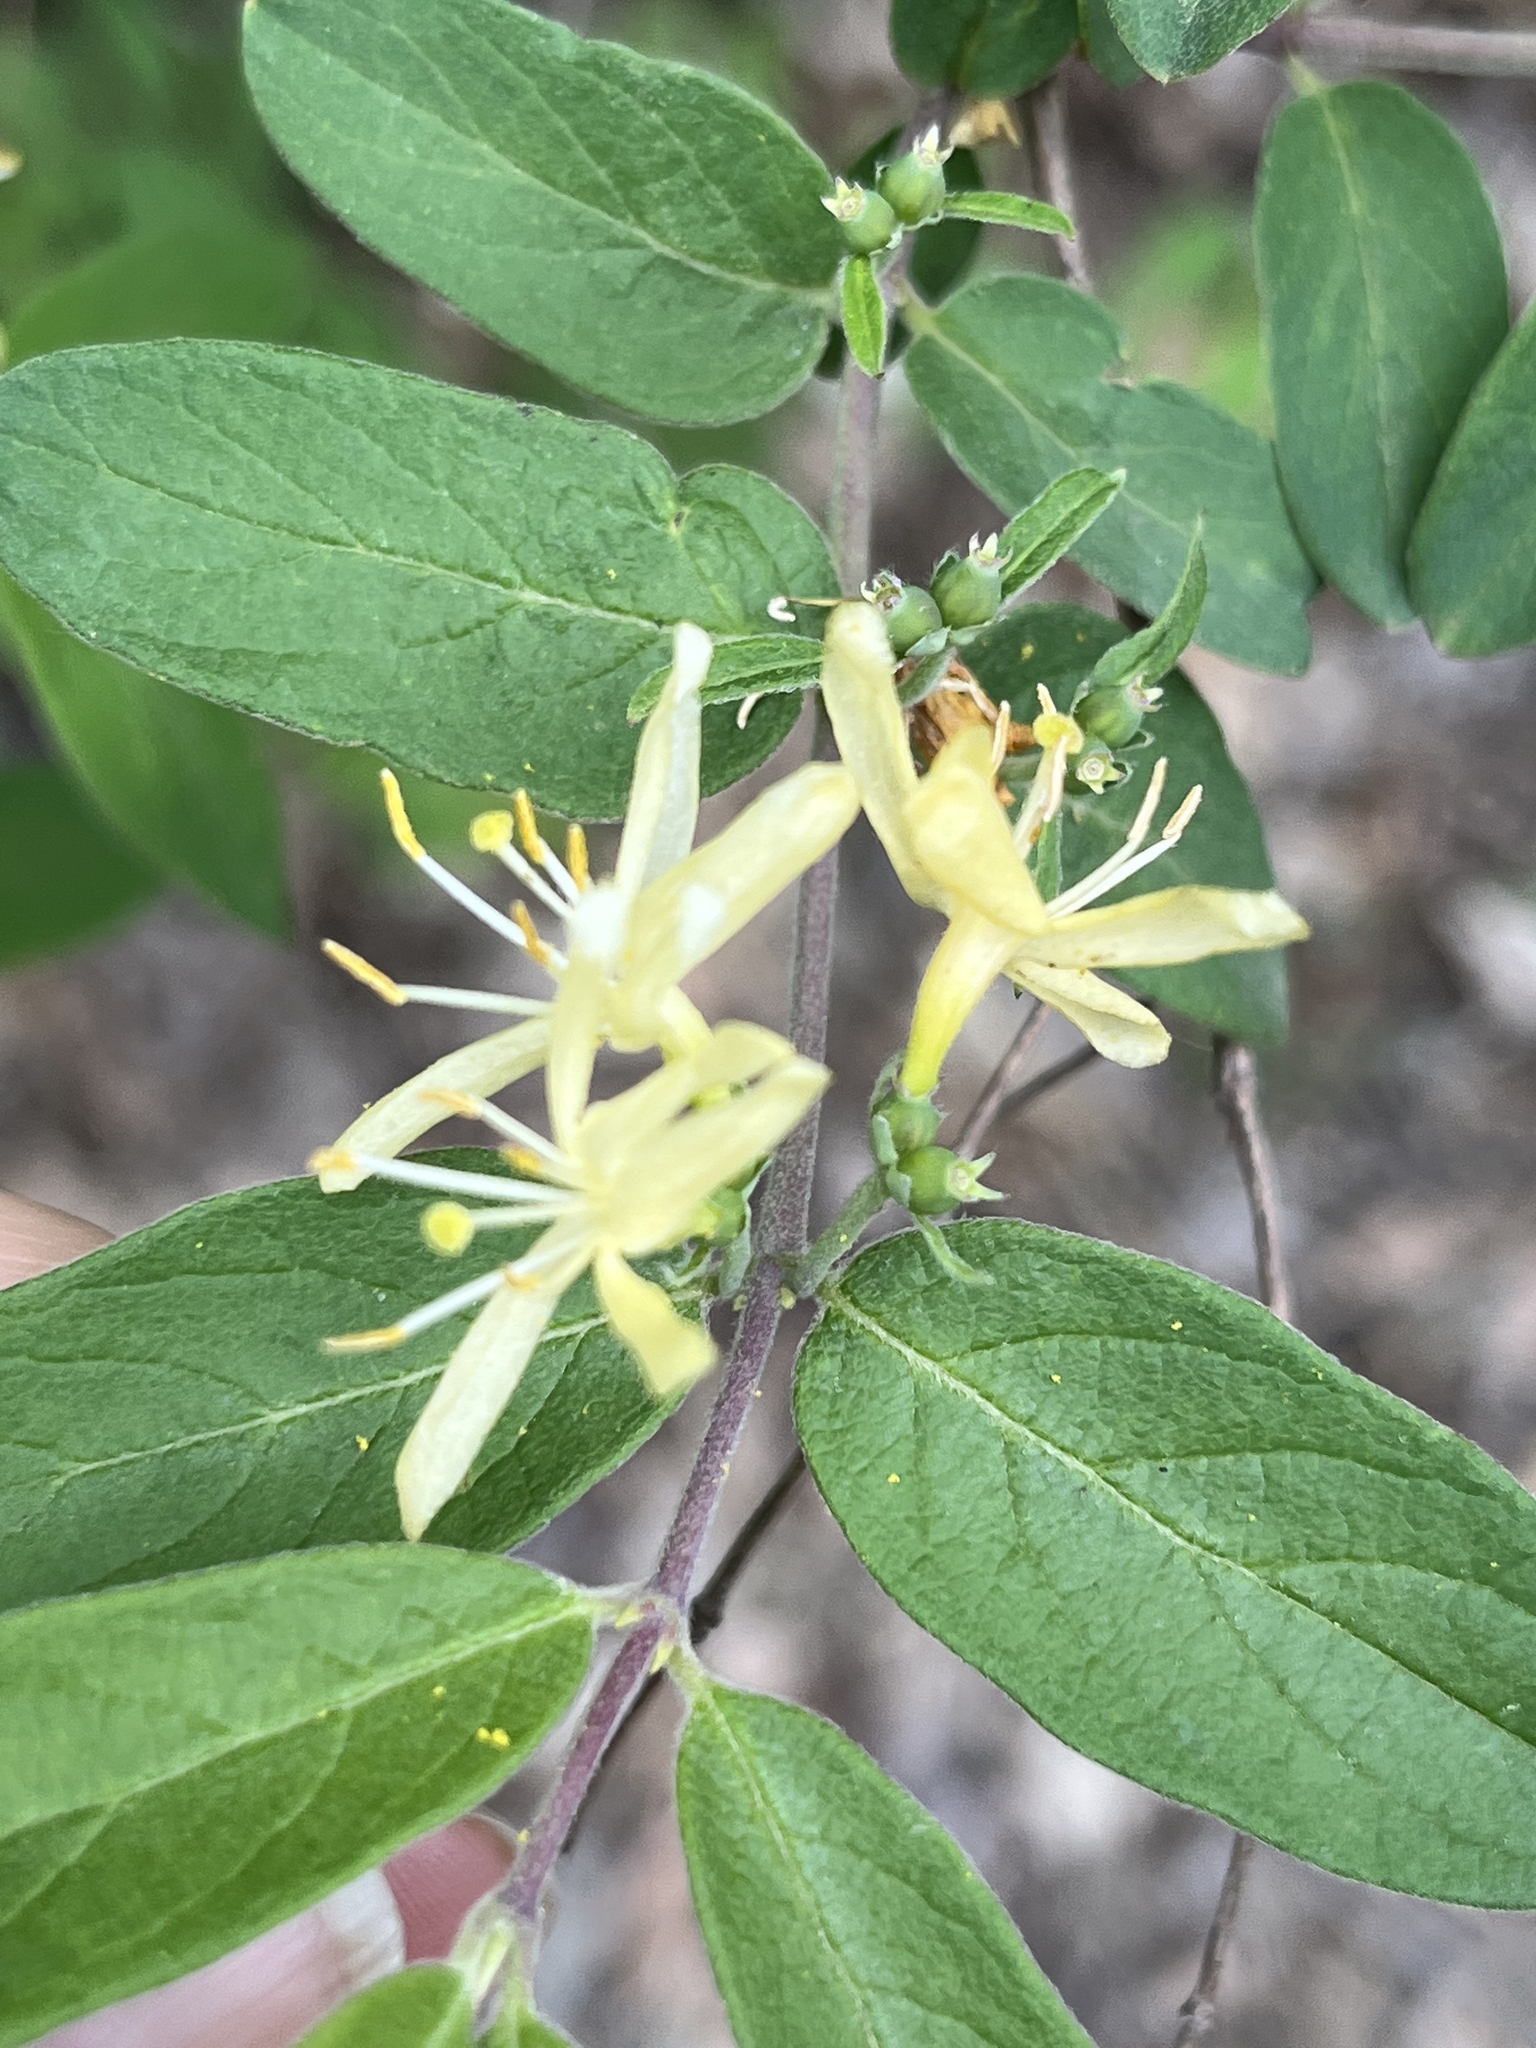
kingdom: Plantae
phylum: Tracheophyta
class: Magnoliopsida
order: Dipsacales
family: Caprifoliaceae
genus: Lonicera
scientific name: Lonicera morrowii
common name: Morrow's honeysuckle
